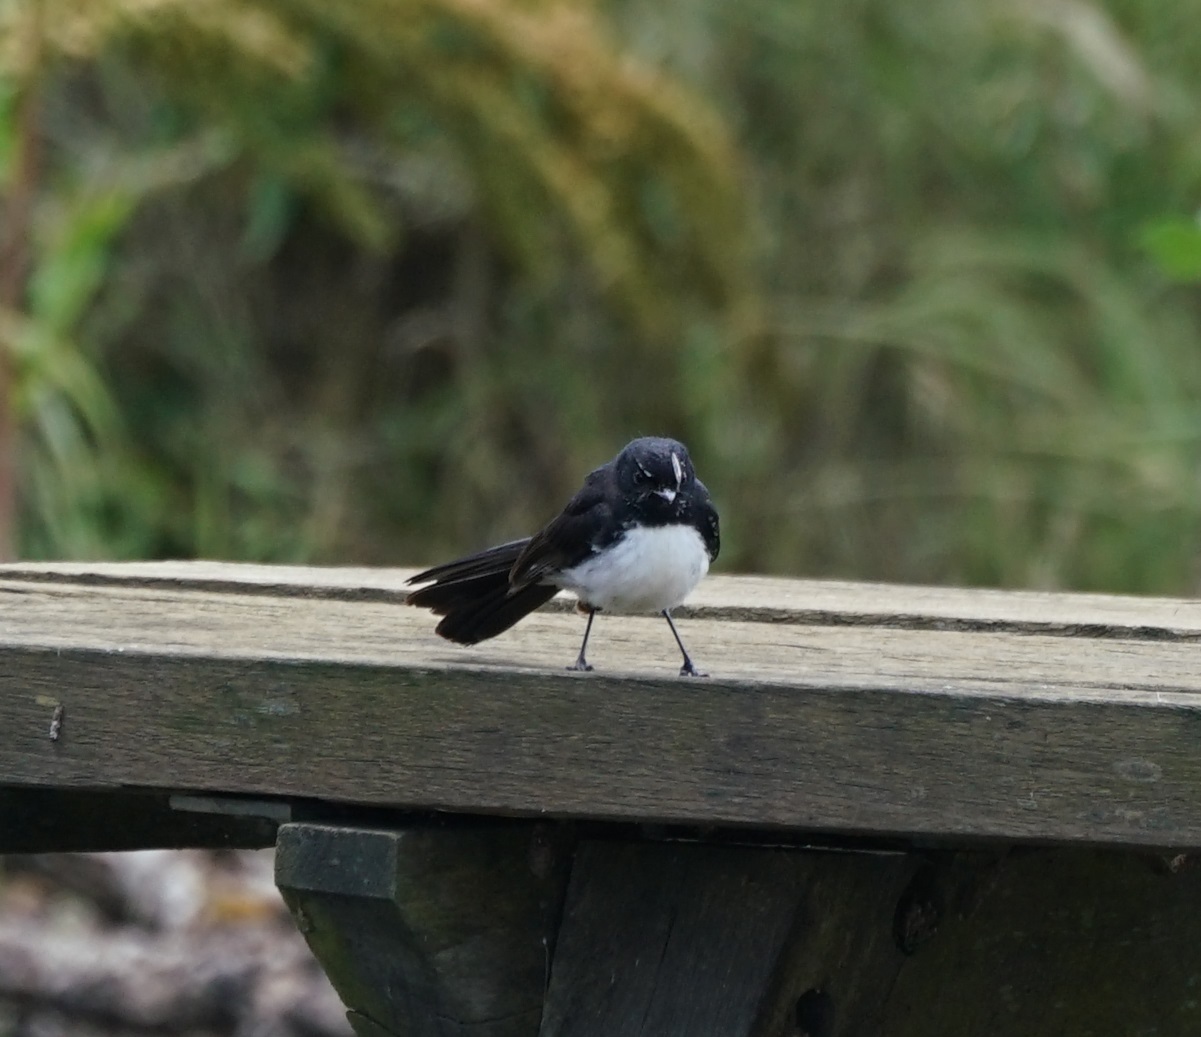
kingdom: Animalia
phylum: Chordata
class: Aves
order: Passeriformes
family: Rhipiduridae
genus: Rhipidura
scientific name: Rhipidura leucophrys
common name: Willie wagtail
